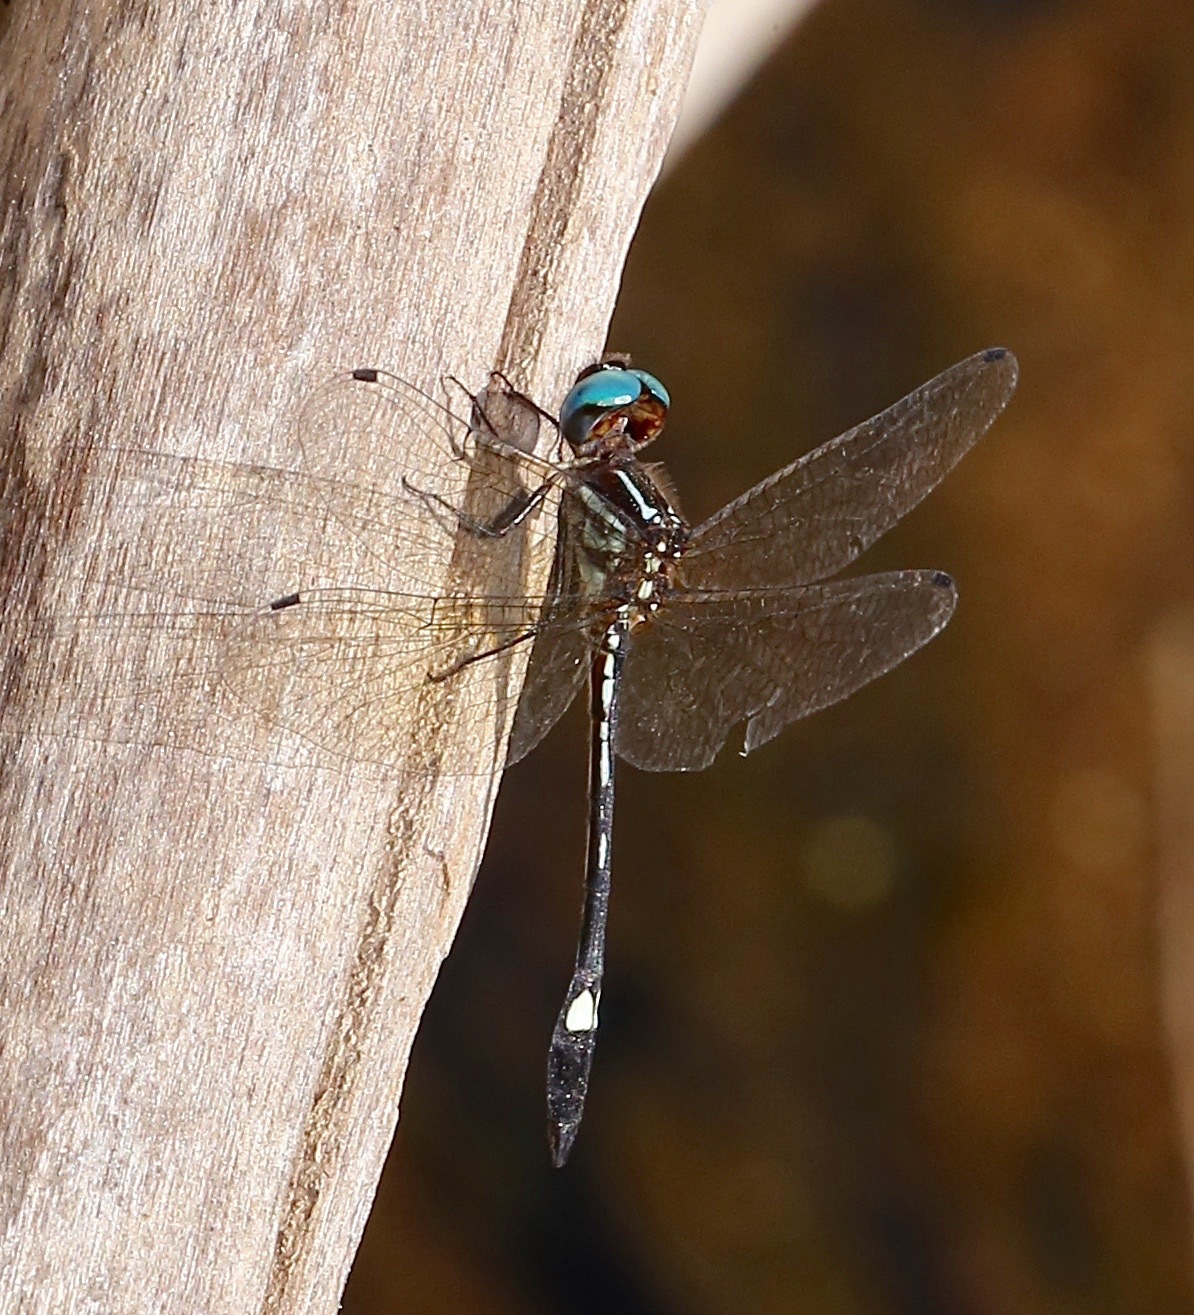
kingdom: Animalia
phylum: Arthropoda
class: Insecta
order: Odonata
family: Libellulidae
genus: Macrothemis
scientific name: Macrothemis ultima
